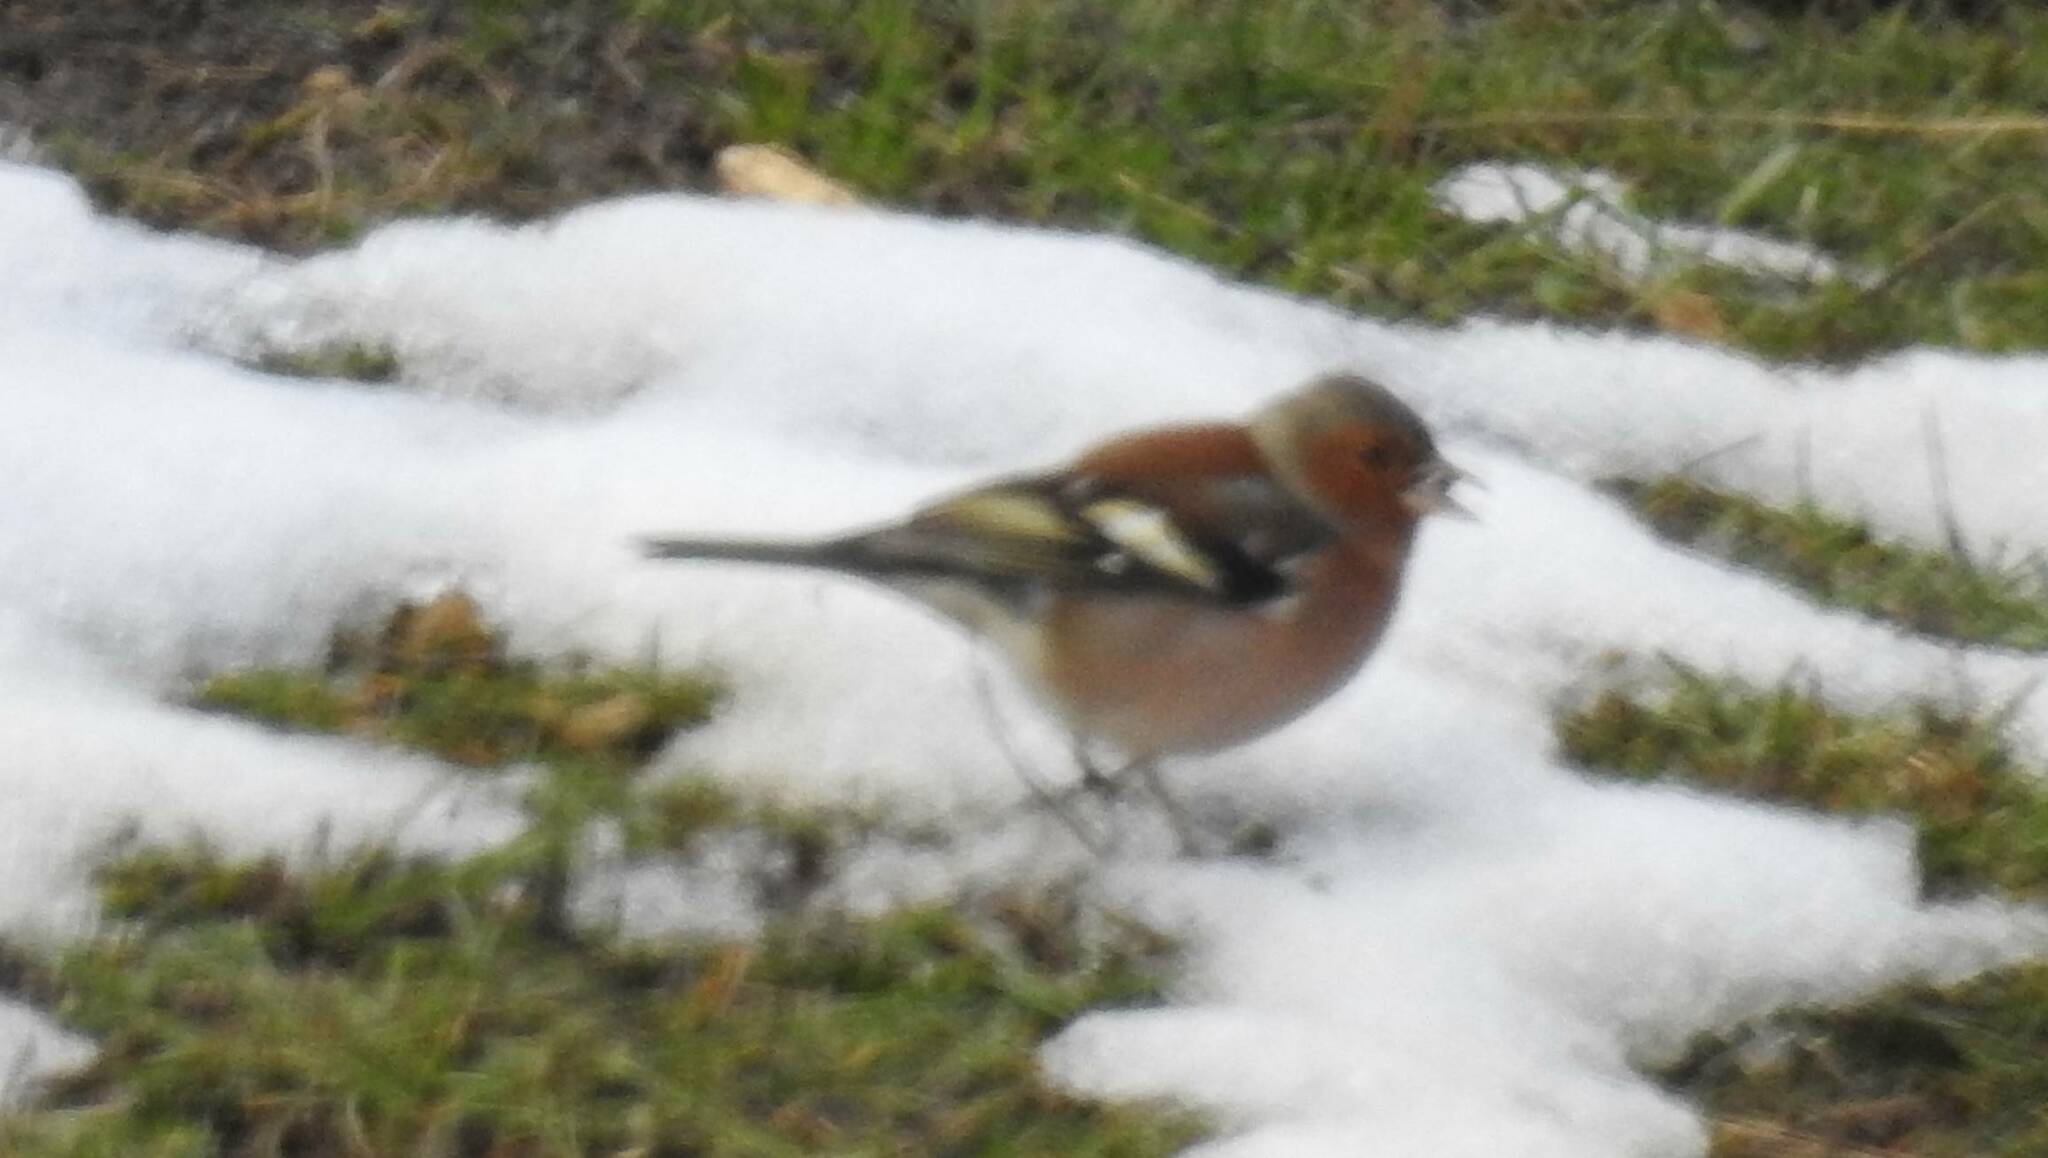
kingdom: Animalia
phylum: Chordata
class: Aves
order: Passeriformes
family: Fringillidae
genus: Fringilla
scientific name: Fringilla coelebs
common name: Common chaffinch
